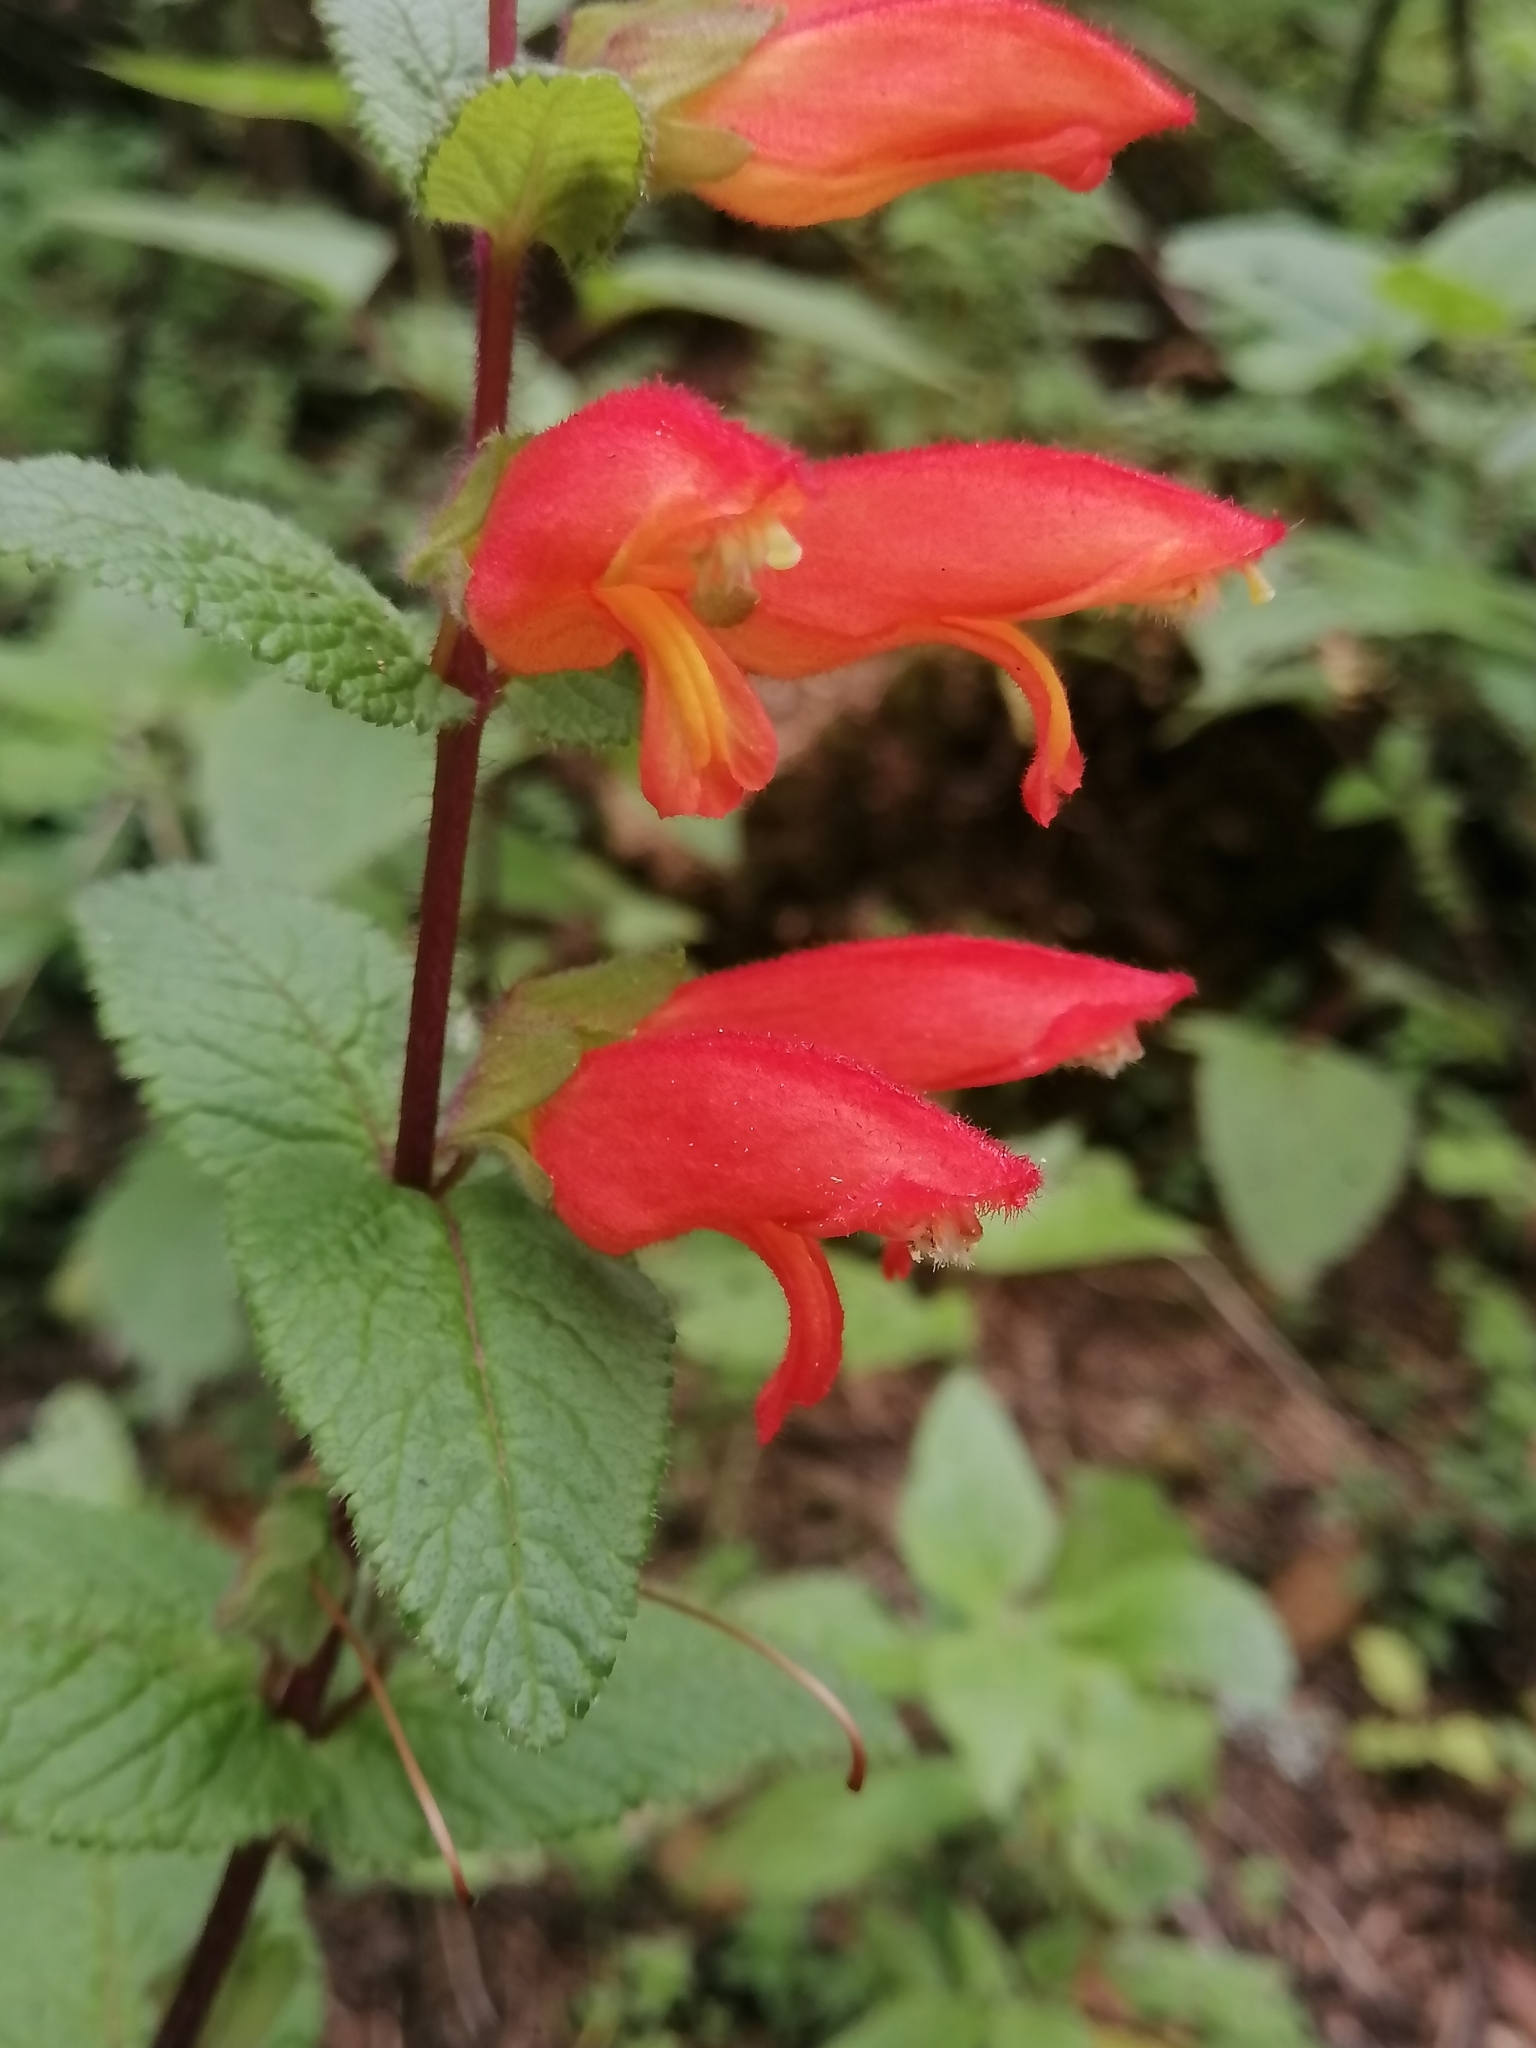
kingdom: Plantae
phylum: Tracheophyta
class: Magnoliopsida
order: Lamiales
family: Orobanchaceae
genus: Lamourouxia
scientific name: Lamourouxia macrantha
